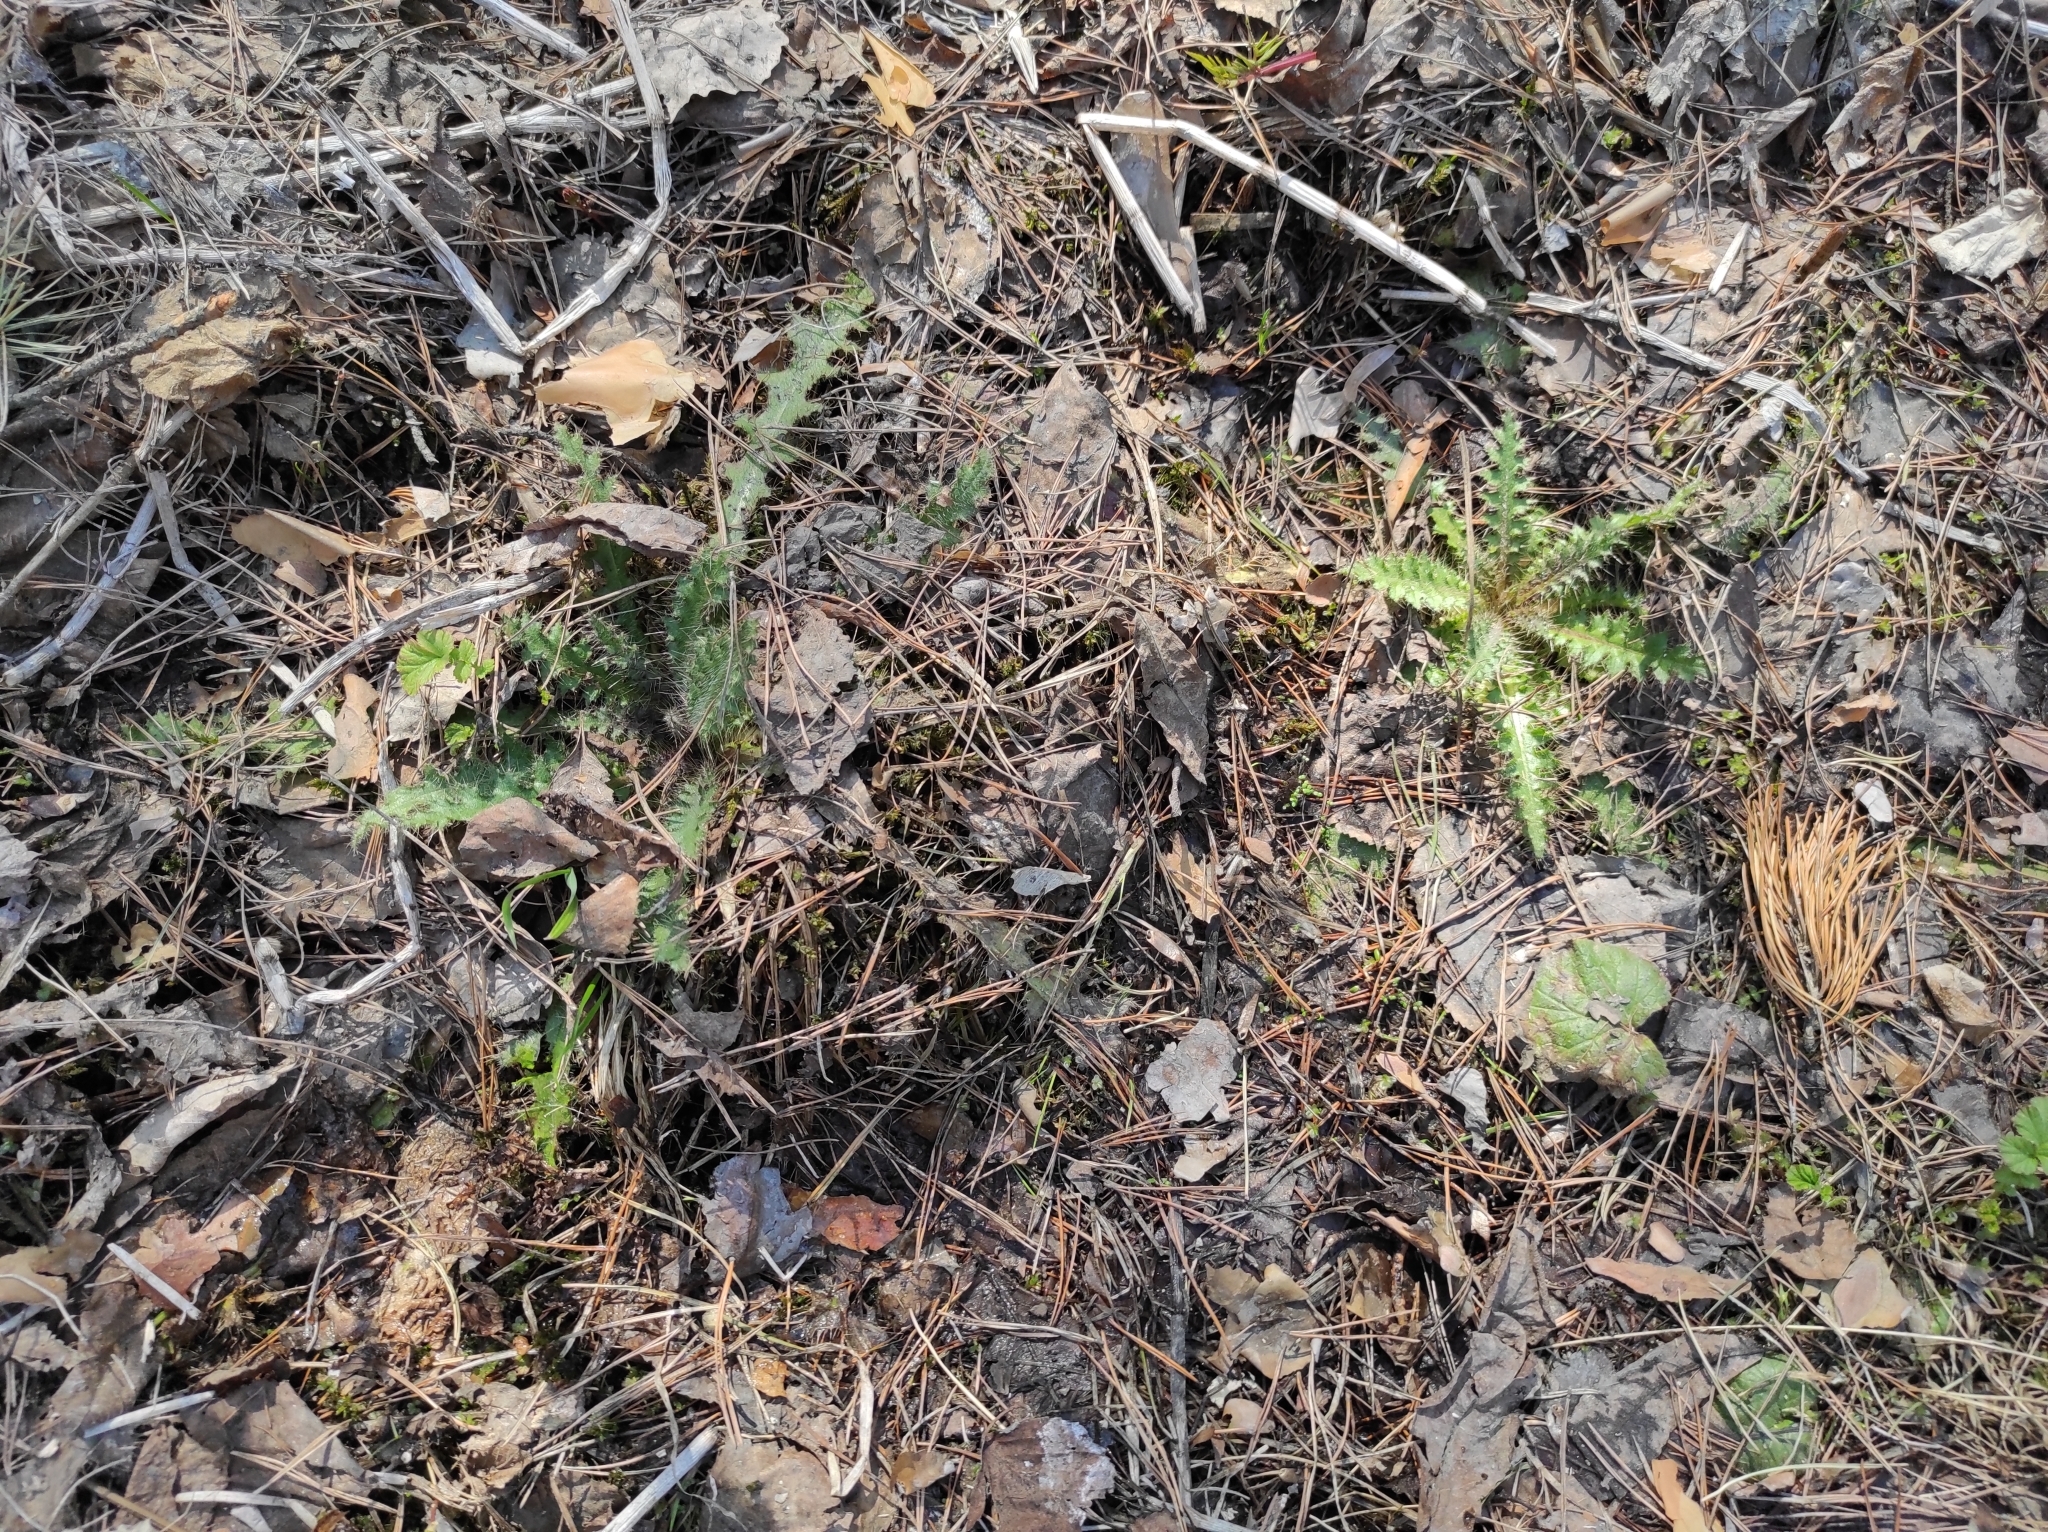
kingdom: Plantae
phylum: Tracheophyta
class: Magnoliopsida
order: Asterales
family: Asteraceae
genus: Cirsium
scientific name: Cirsium palustre
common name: Marsh thistle
